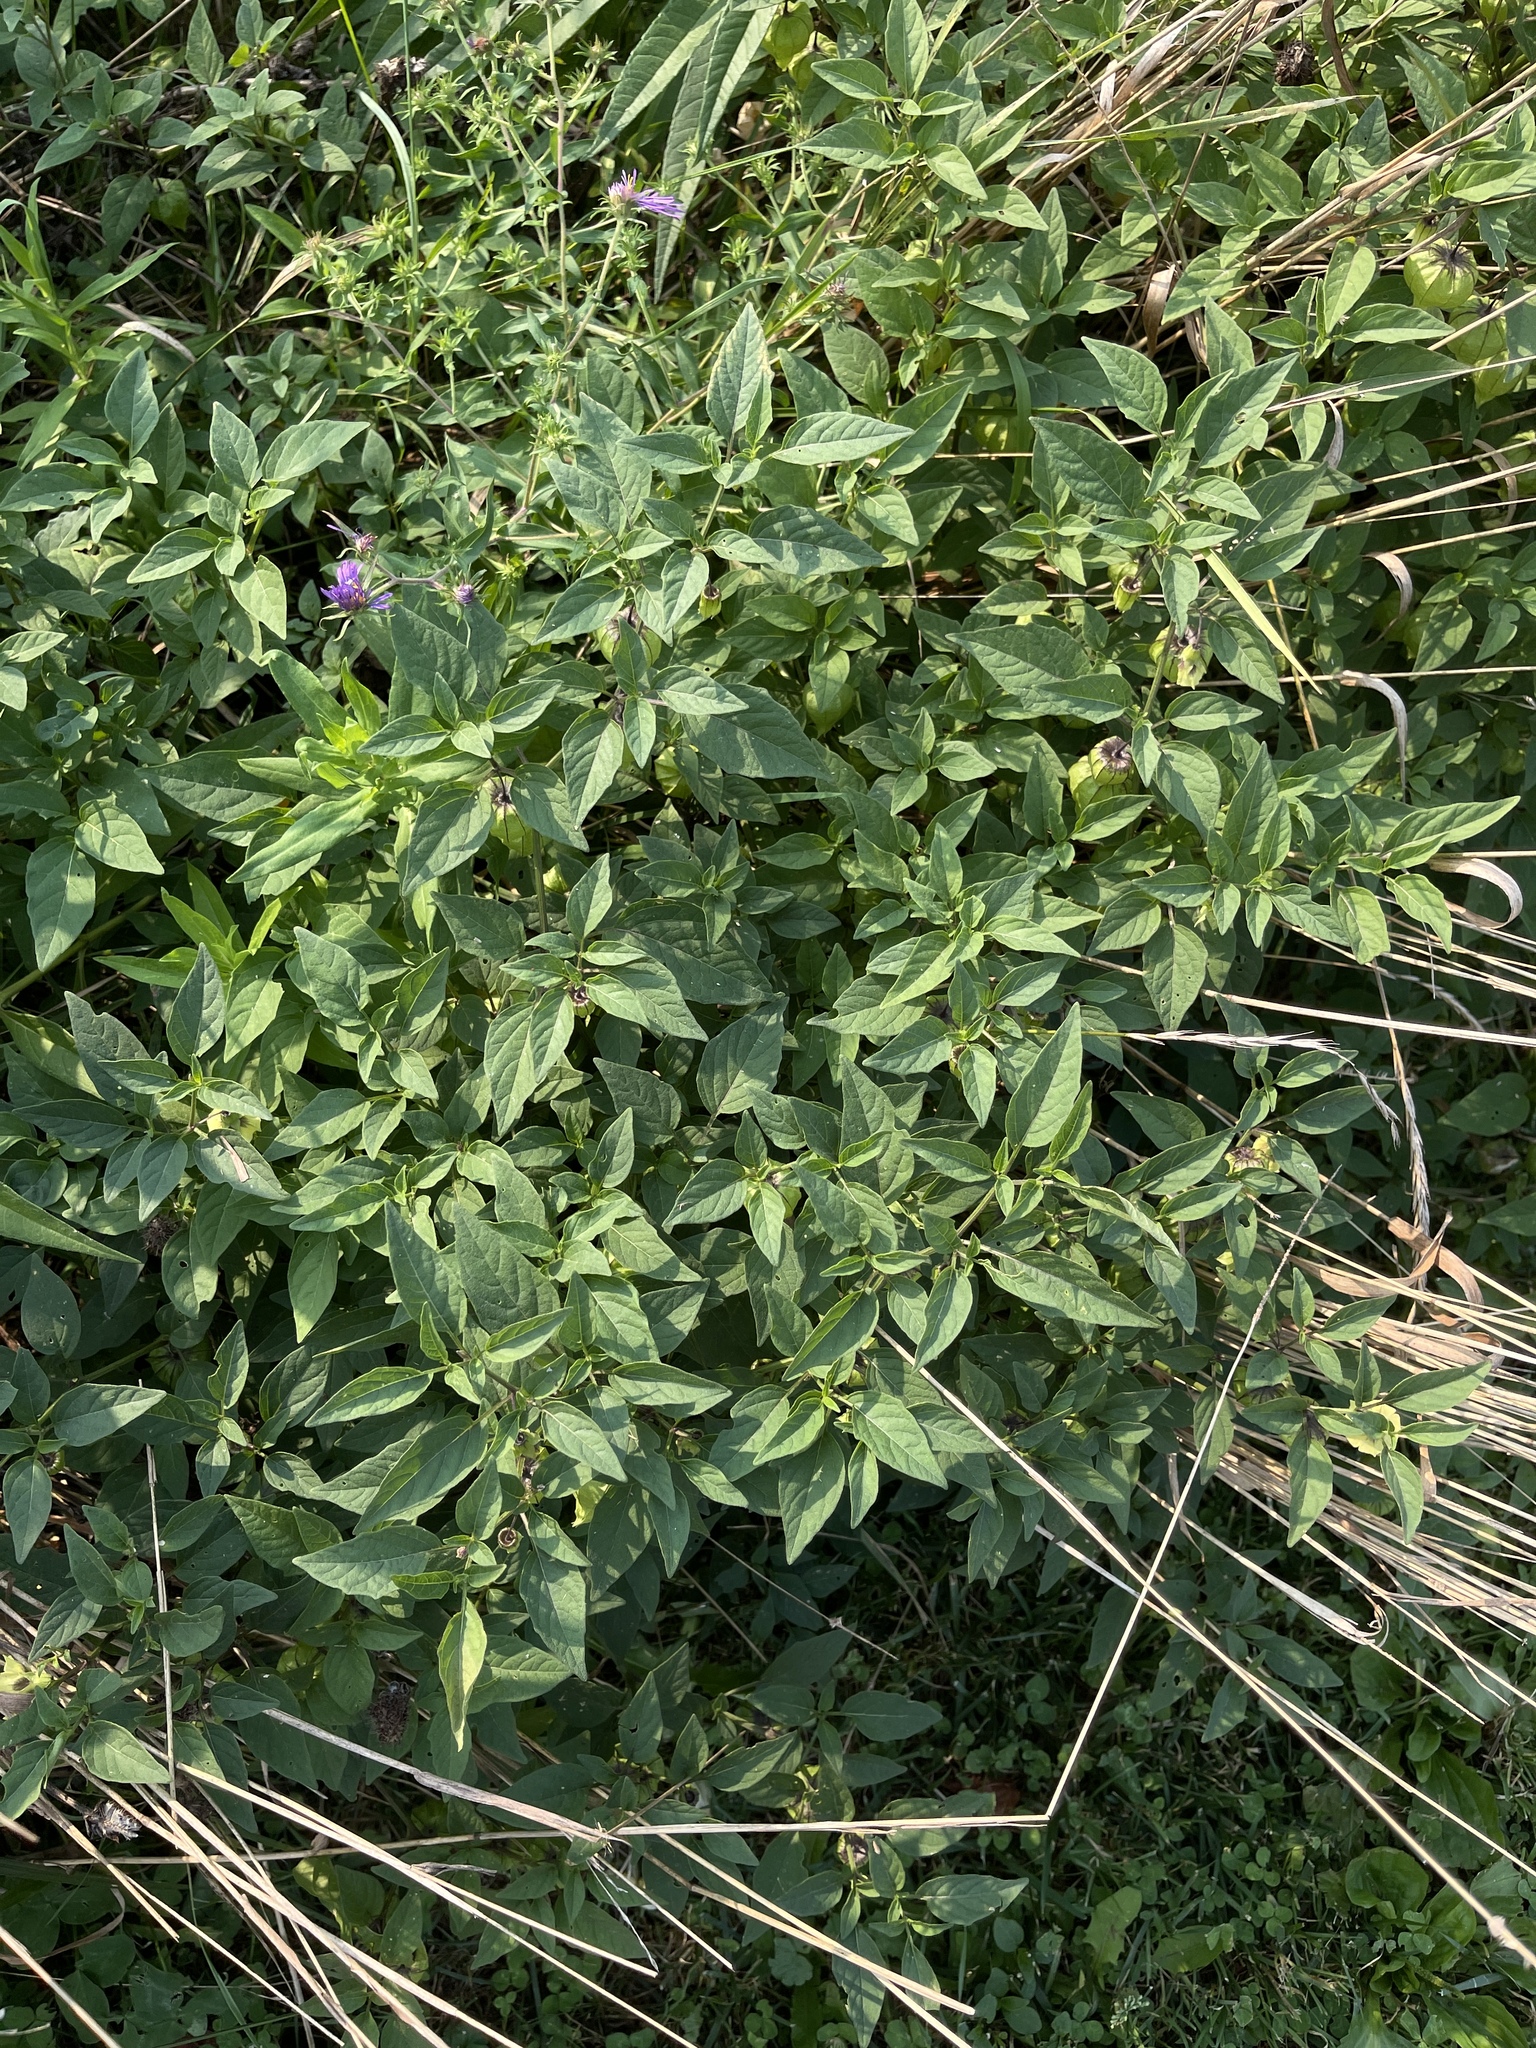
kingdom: Plantae
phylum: Tracheophyta
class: Magnoliopsida
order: Solanales
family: Solanaceae
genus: Physalis
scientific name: Physalis longifolia
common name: Common ground-cherry
